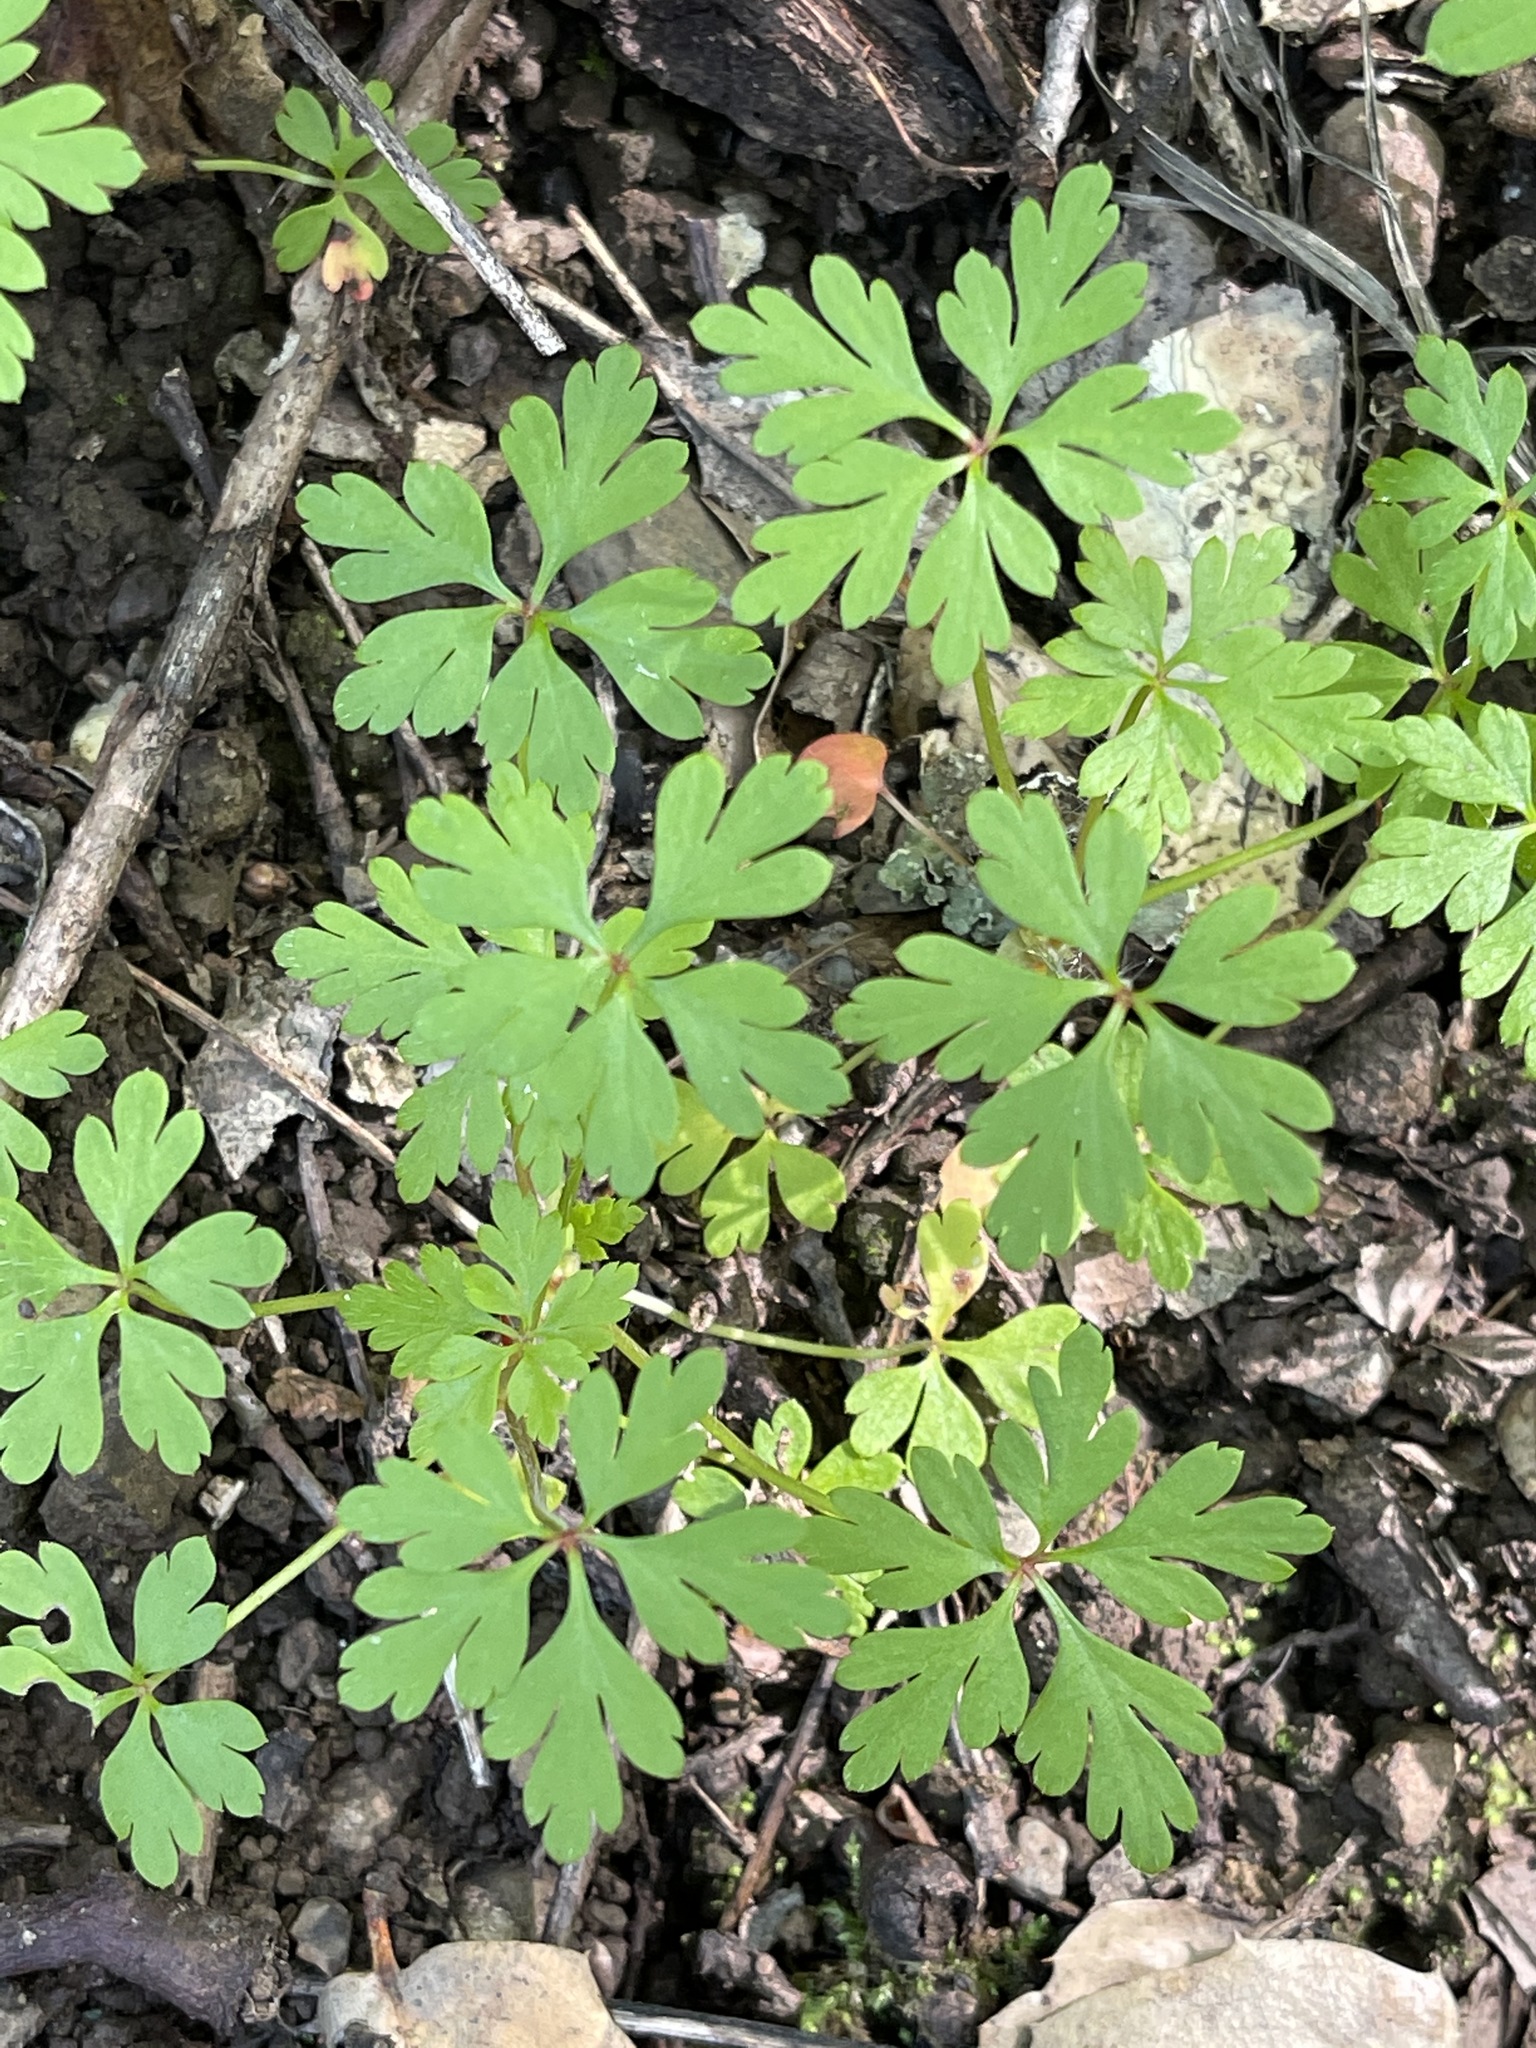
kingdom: Plantae
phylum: Tracheophyta
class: Magnoliopsida
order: Geraniales
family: Geraniaceae
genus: Geranium
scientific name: Geranium
